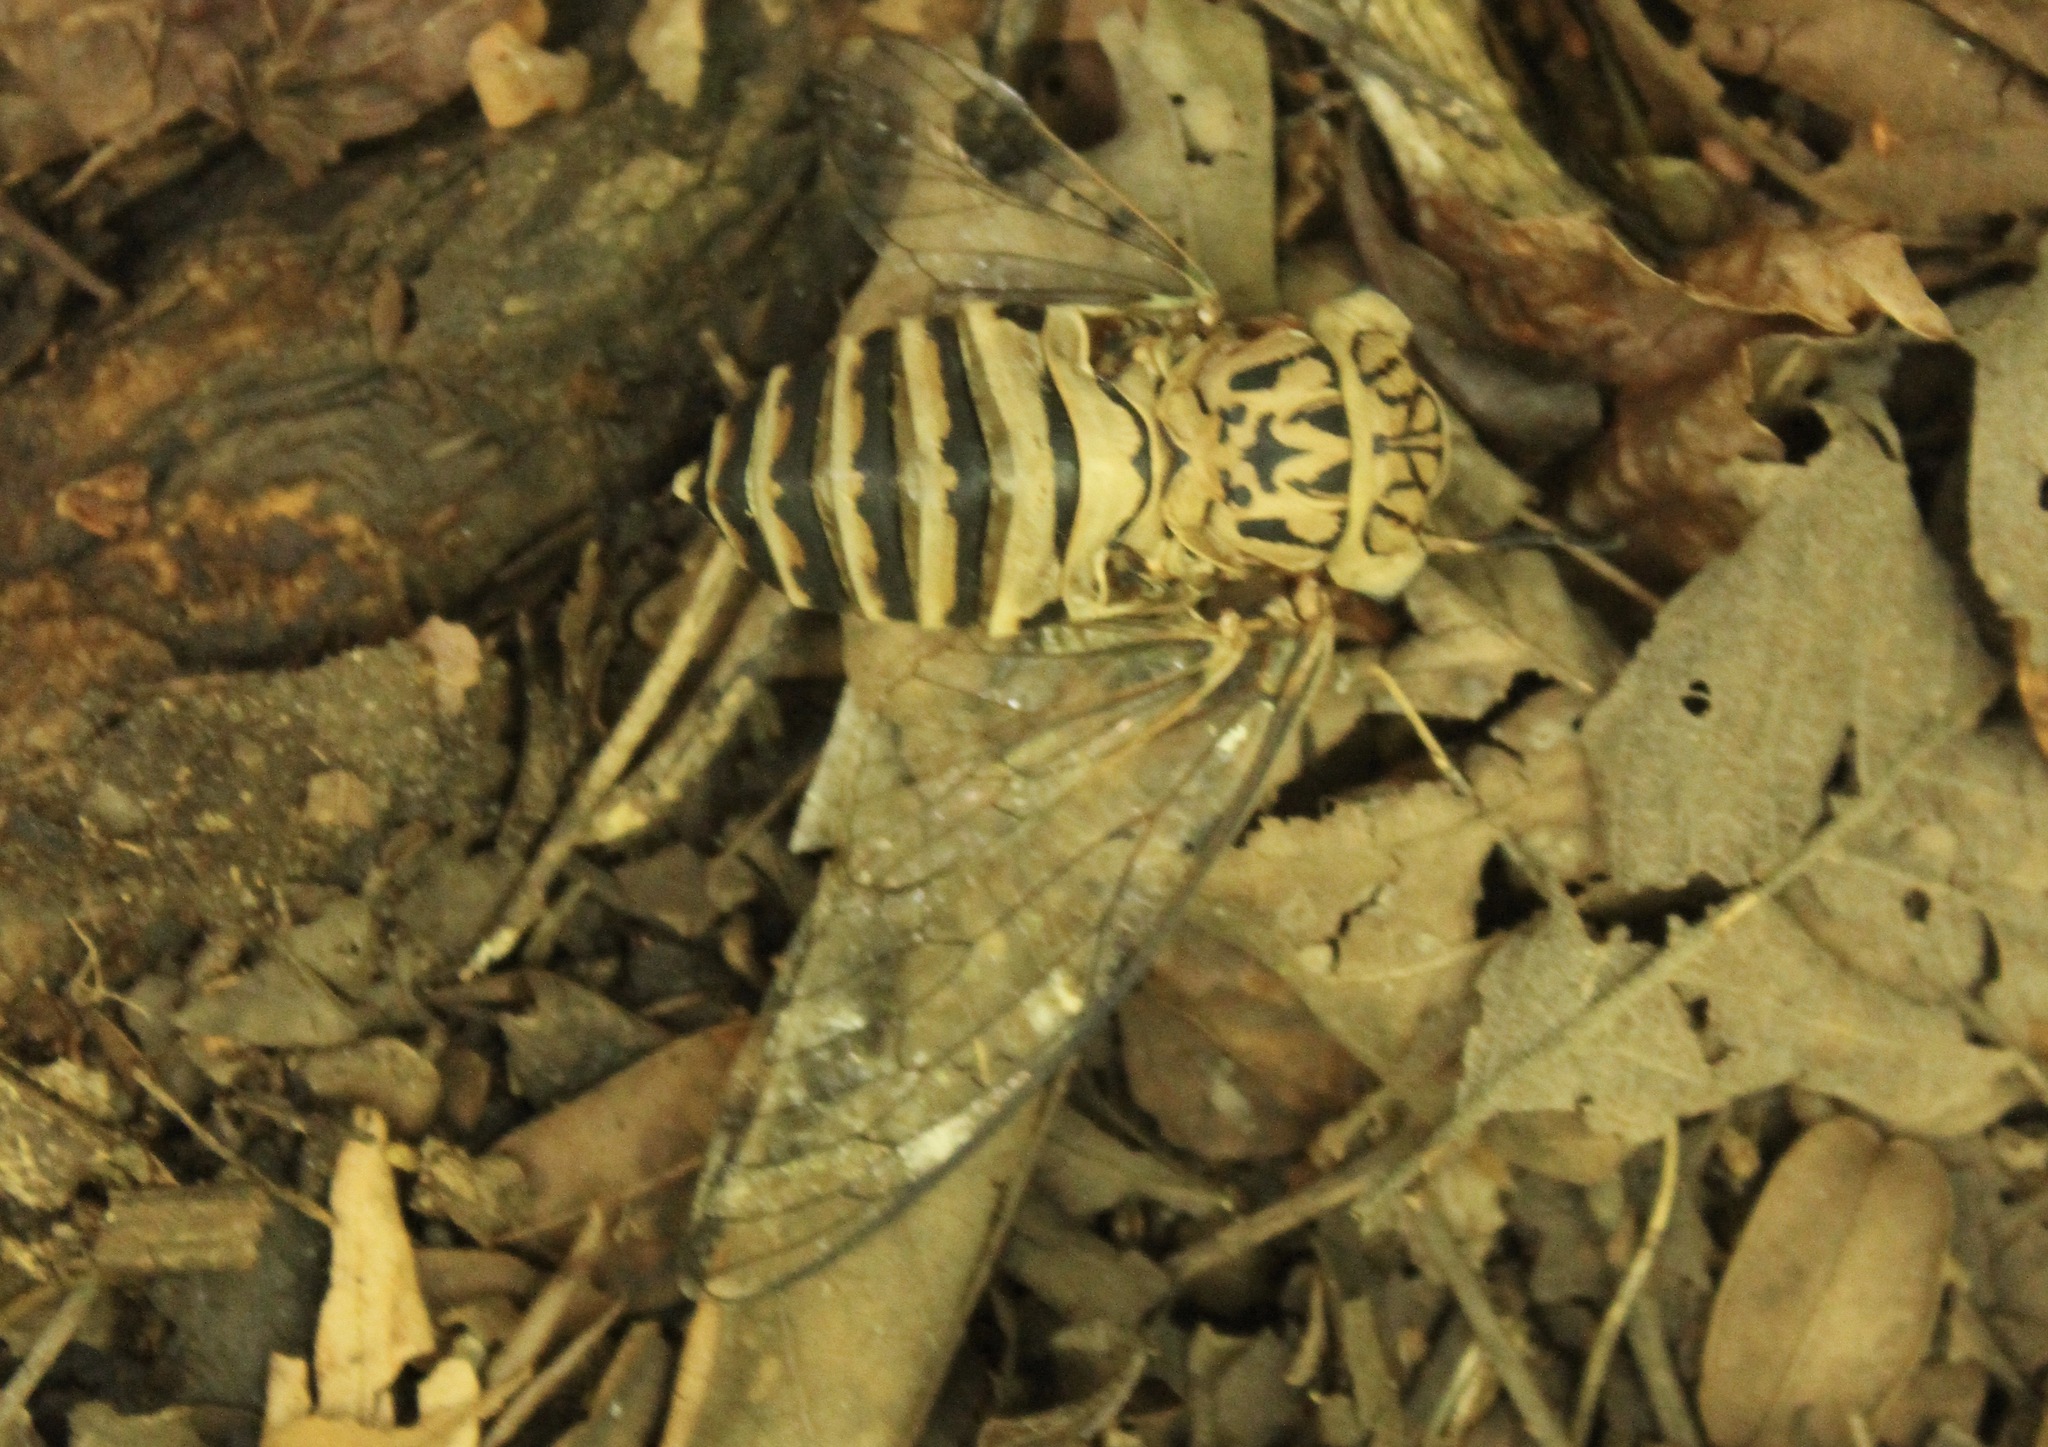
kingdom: Animalia
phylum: Arthropoda
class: Insecta
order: Hemiptera
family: Cicadidae
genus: Daza
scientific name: Daza montezuma
